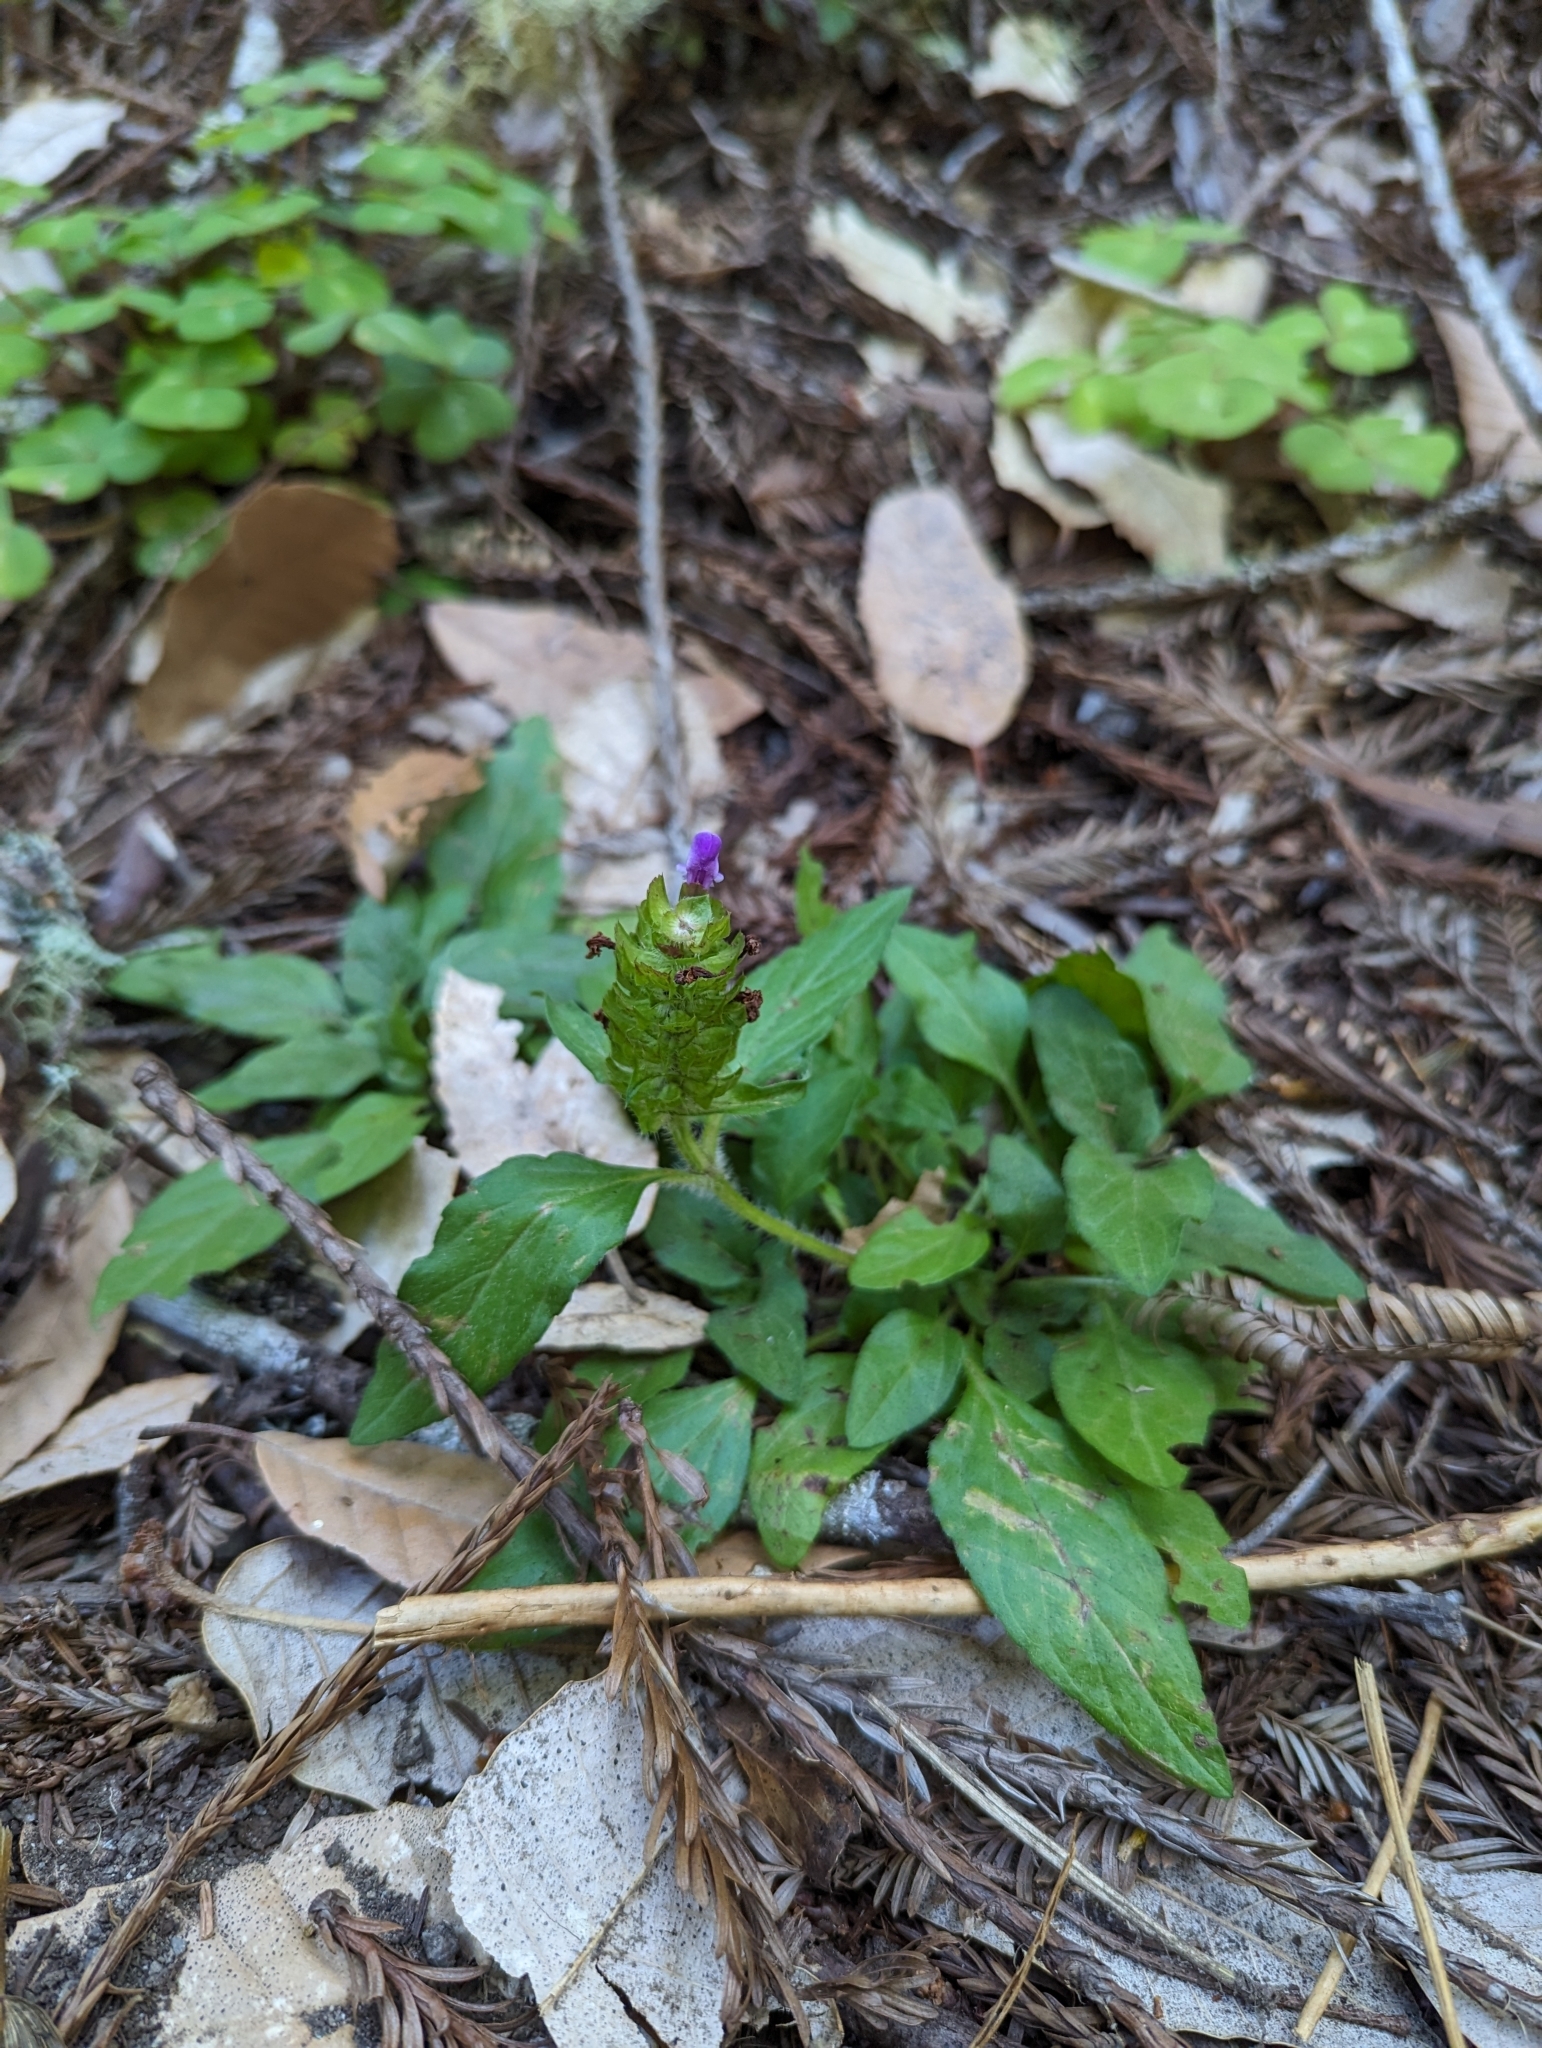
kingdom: Plantae
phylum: Tracheophyta
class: Magnoliopsida
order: Lamiales
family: Lamiaceae
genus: Prunella
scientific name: Prunella vulgaris
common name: Heal-all
